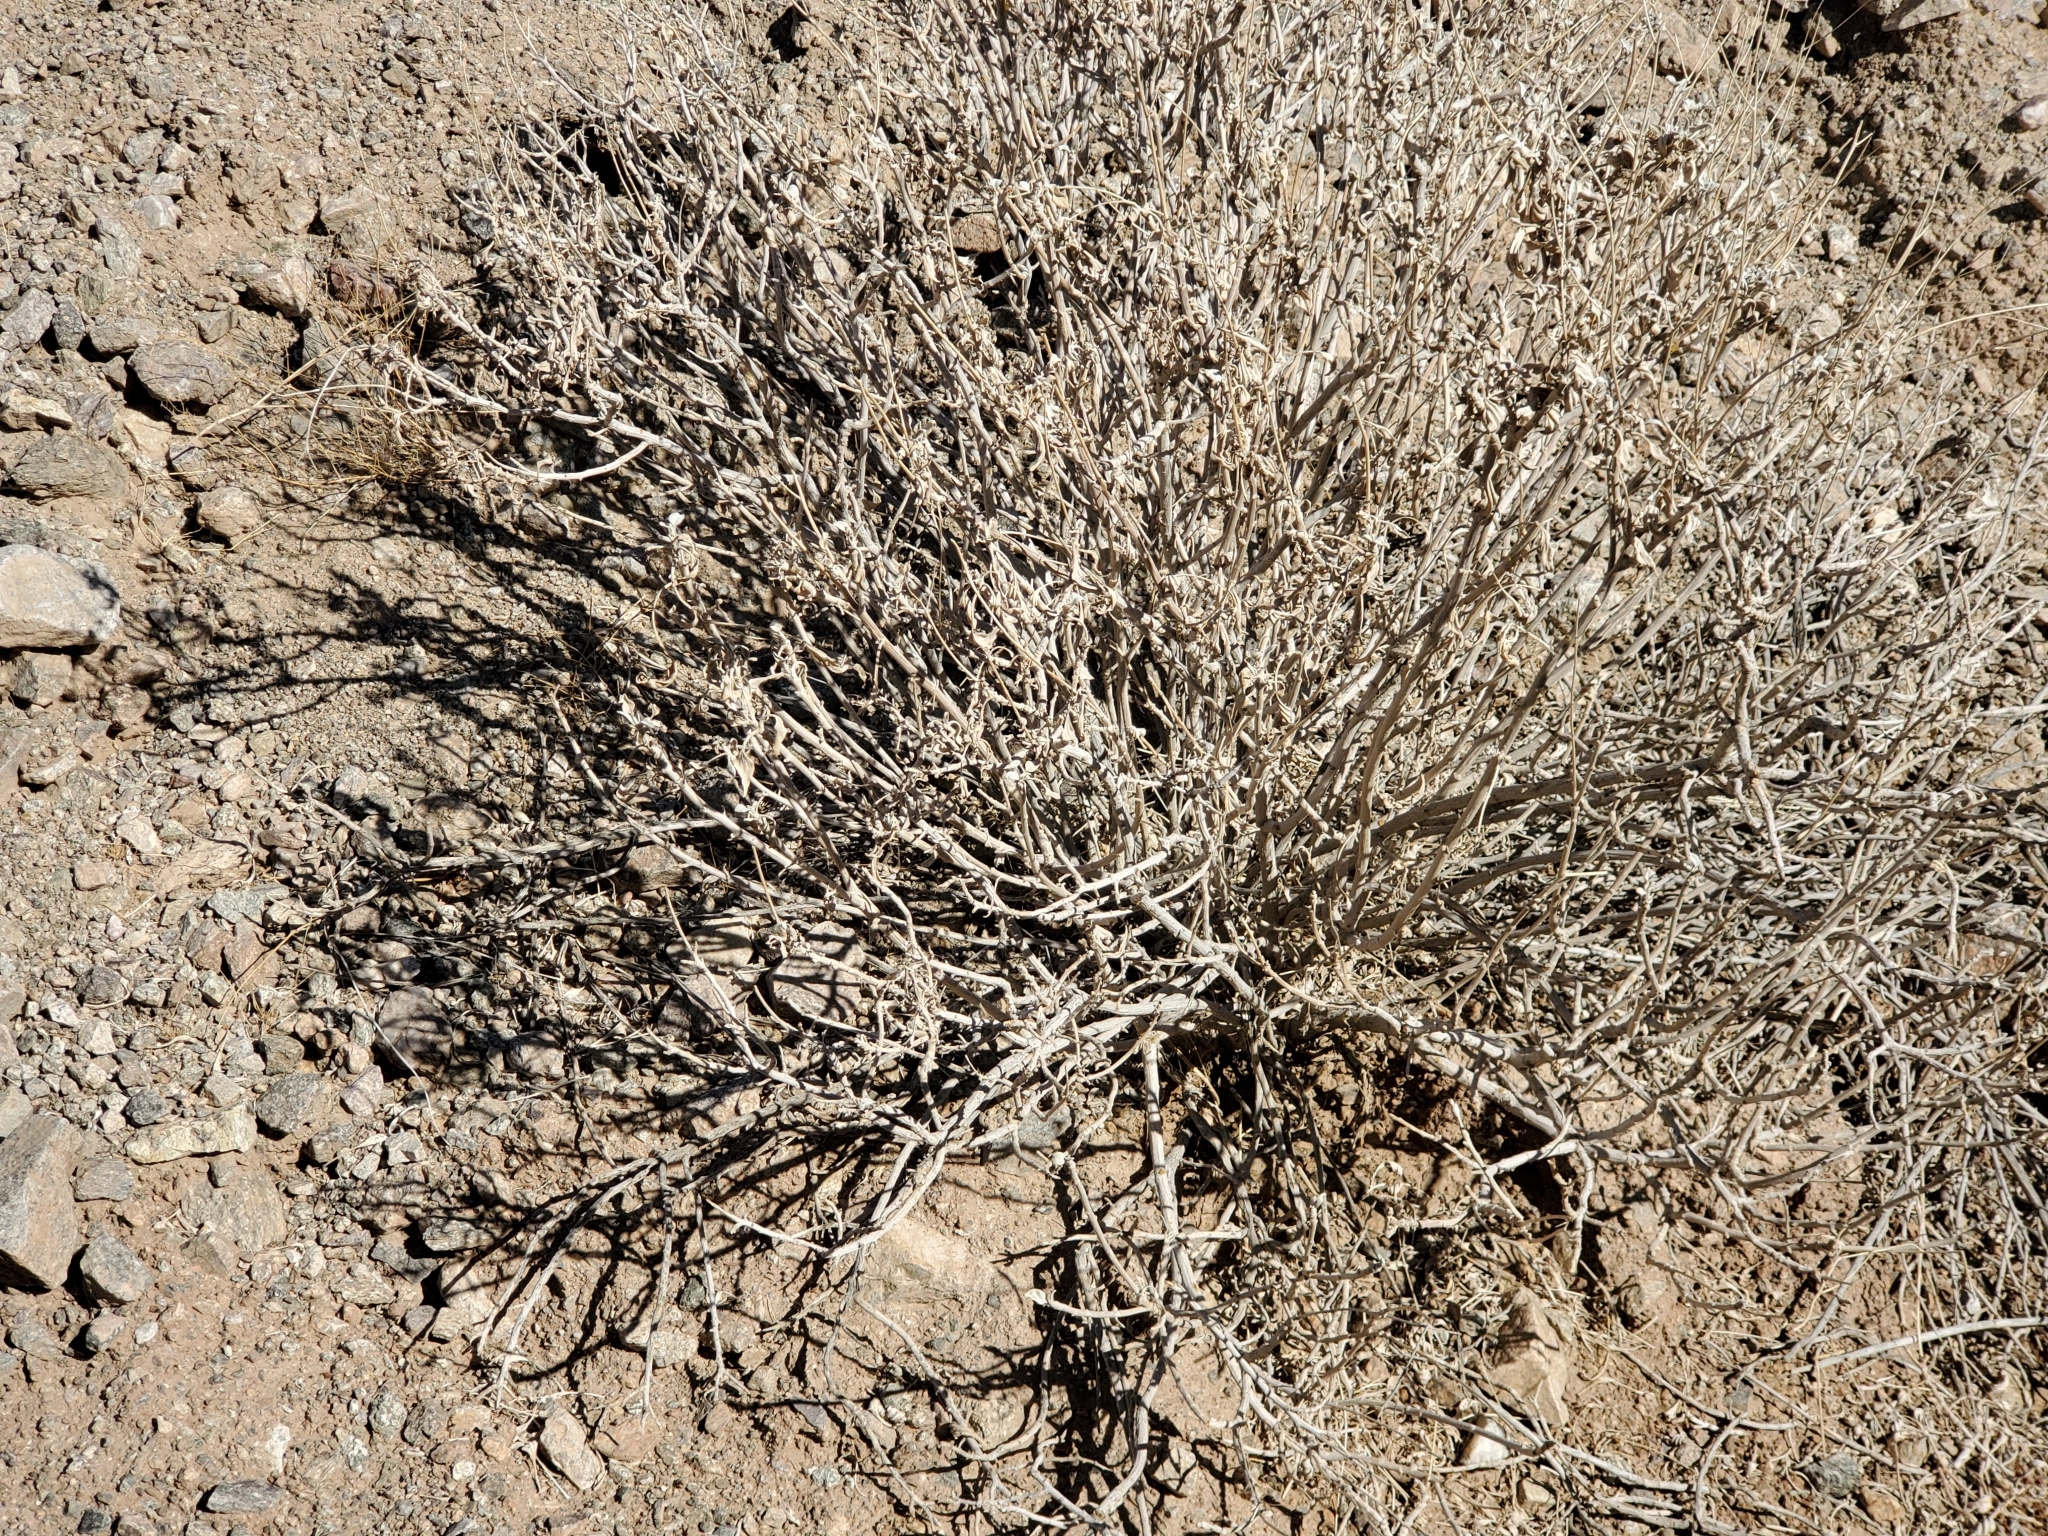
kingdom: Plantae
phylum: Tracheophyta
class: Magnoliopsida
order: Asterales
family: Asteraceae
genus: Encelia
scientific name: Encelia farinosa
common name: Brittlebush
